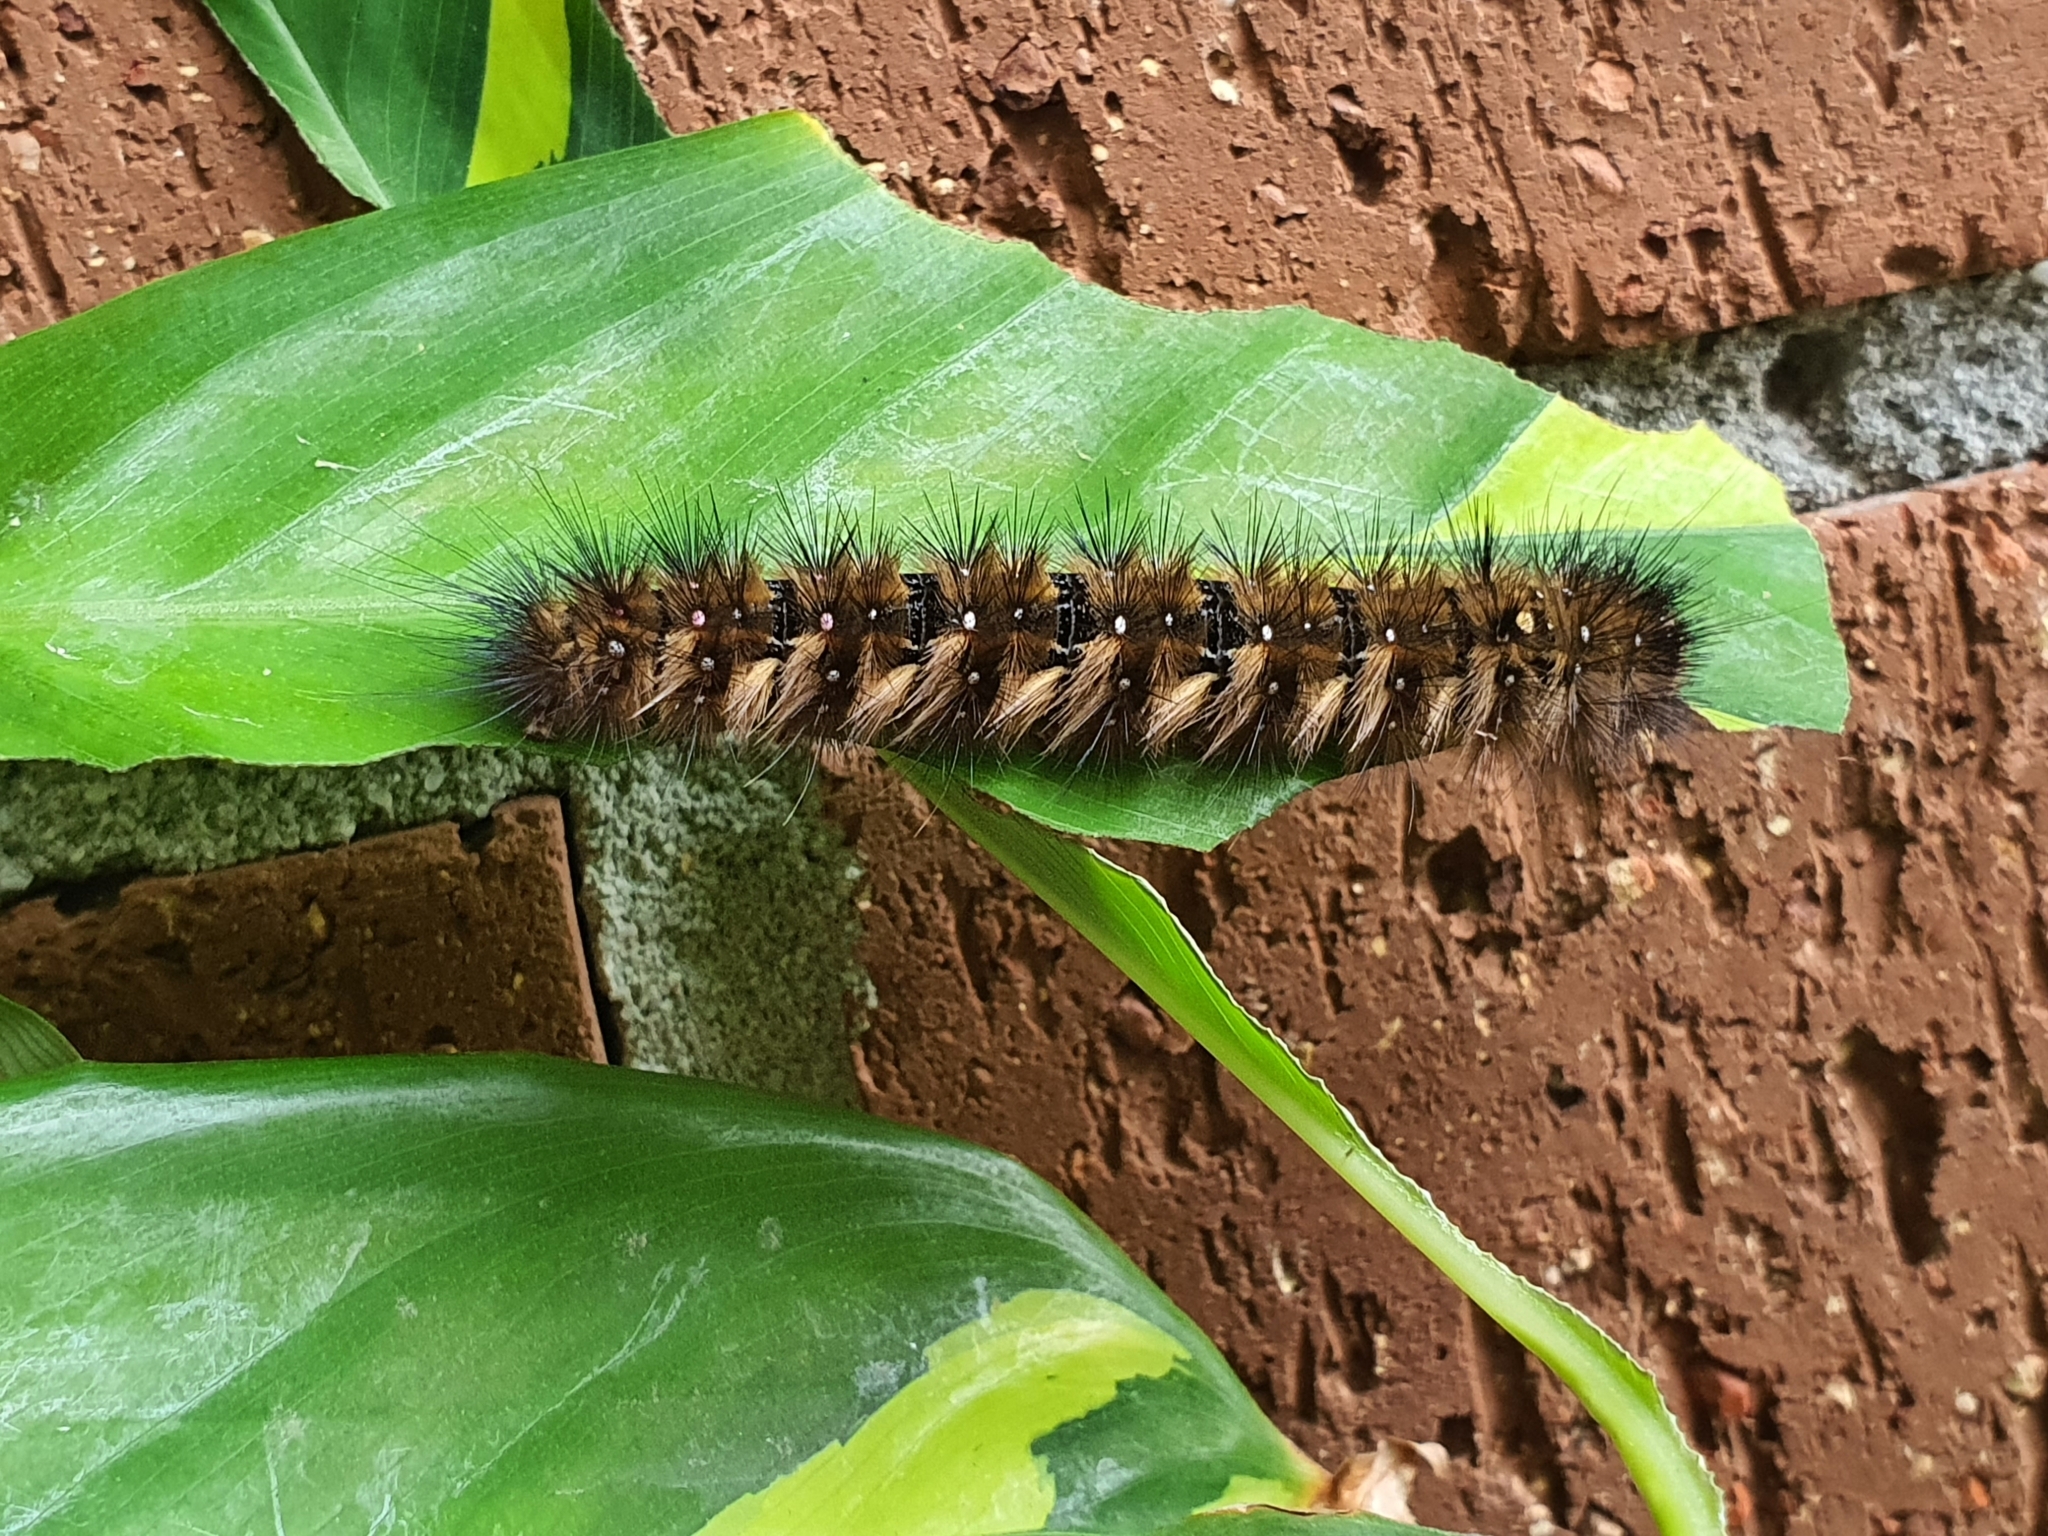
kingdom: Animalia
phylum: Arthropoda
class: Insecta
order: Lepidoptera
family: Anthelidae
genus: Anthela
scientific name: Anthela acuta
